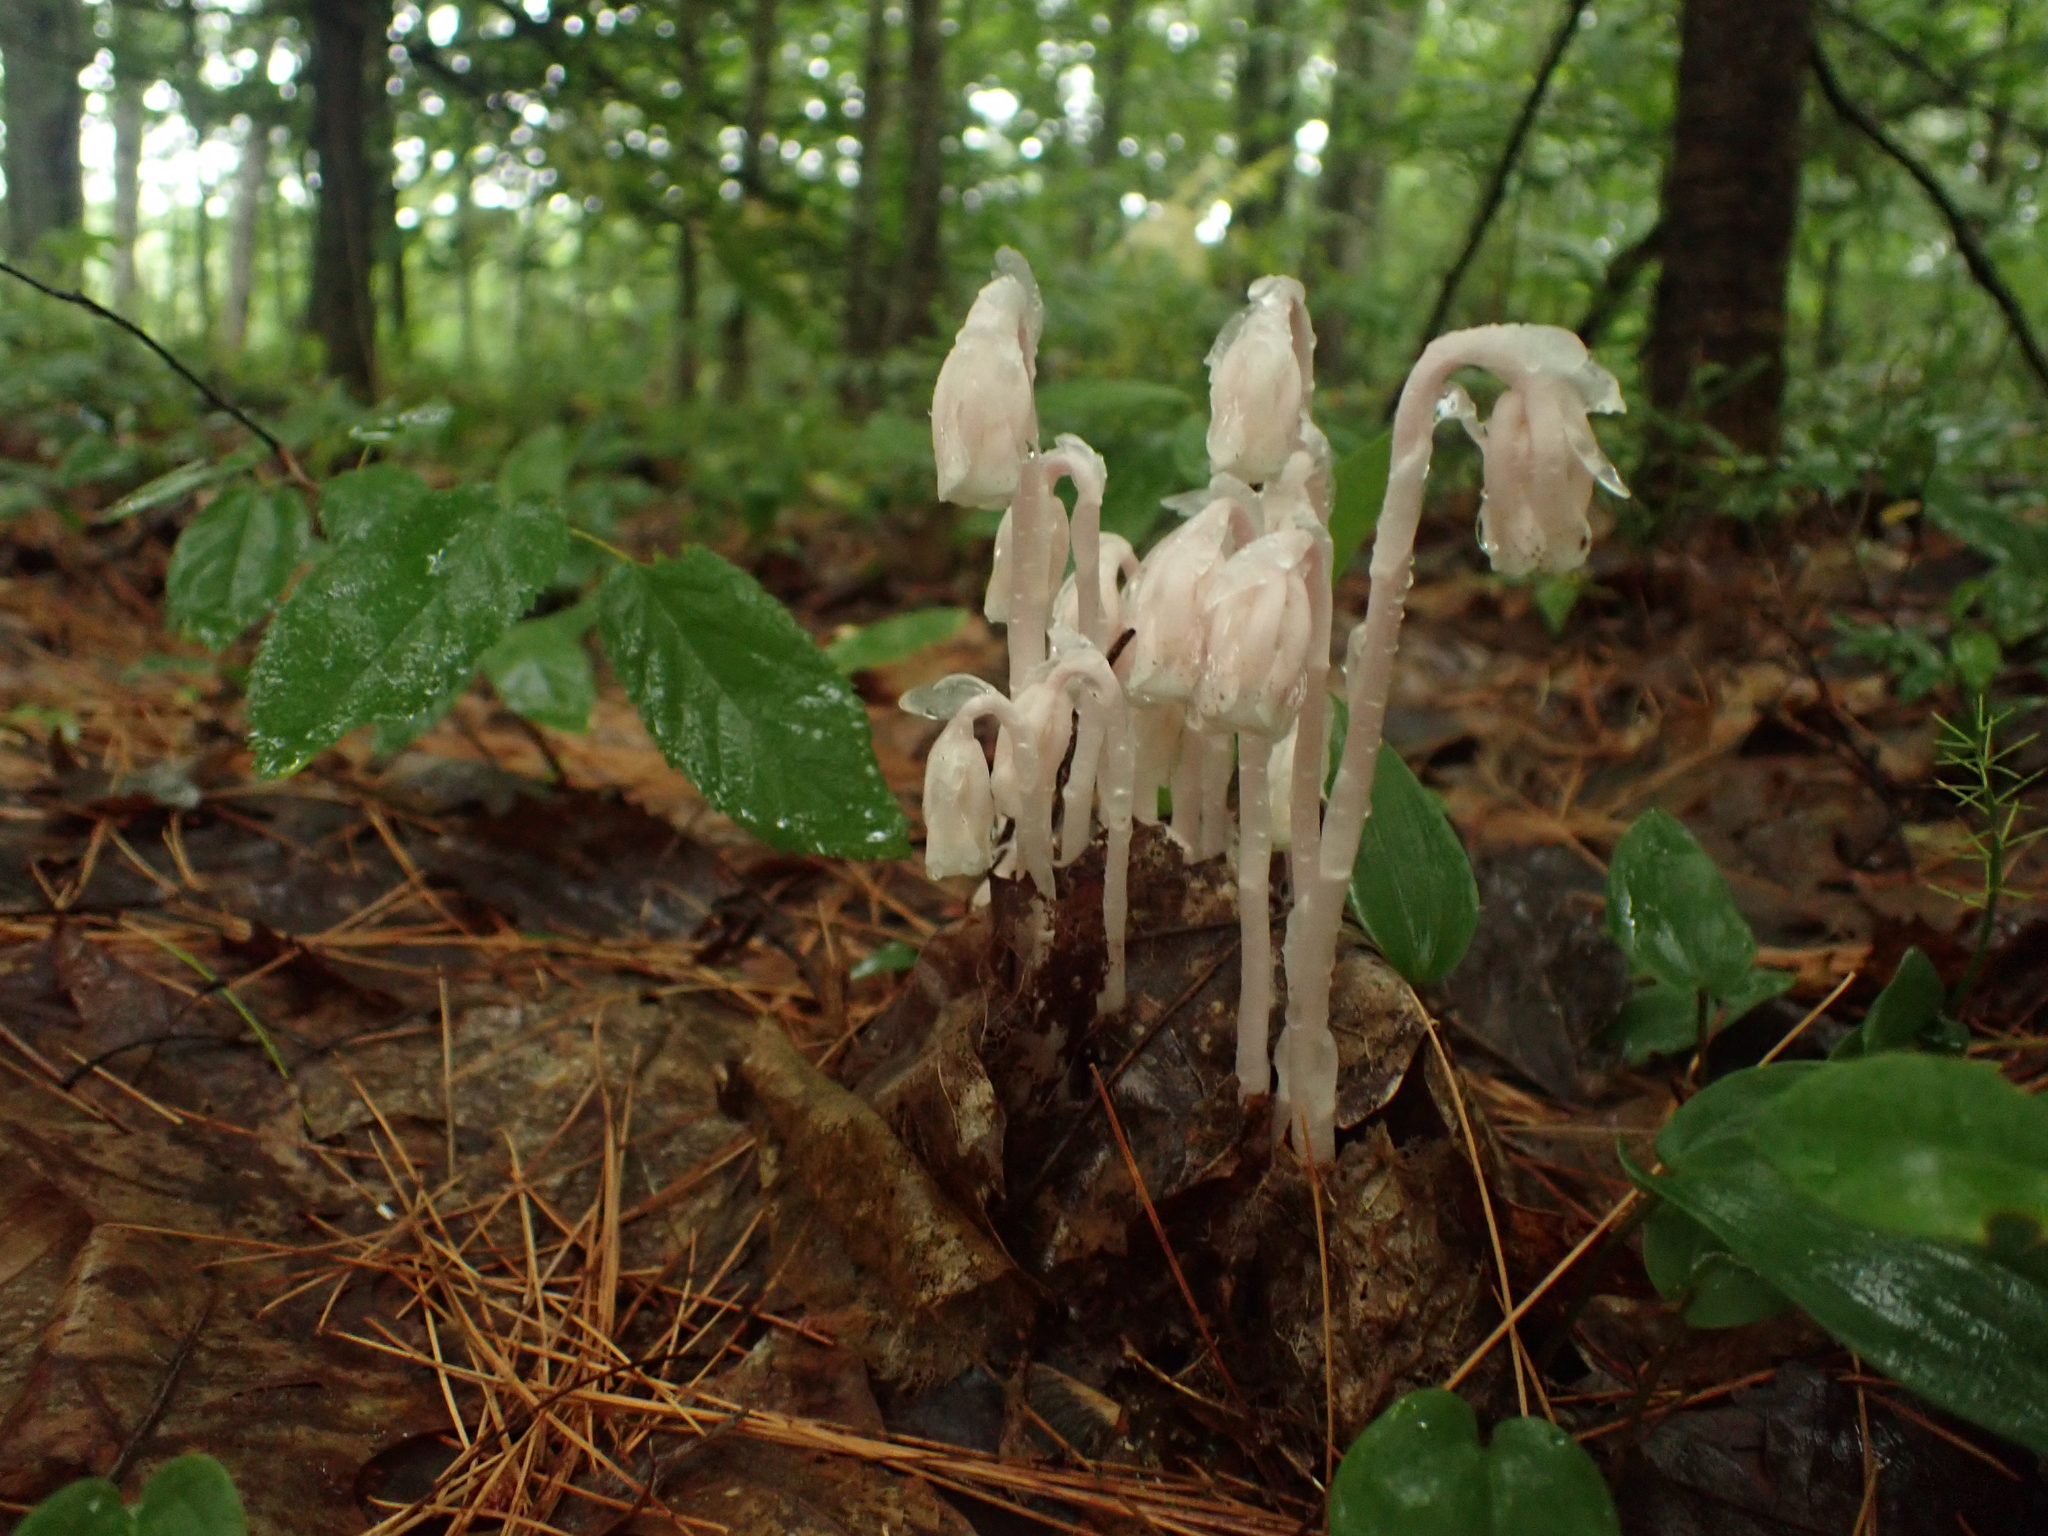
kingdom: Plantae
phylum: Tracheophyta
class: Magnoliopsida
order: Ericales
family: Ericaceae
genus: Monotropa
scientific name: Monotropa uniflora
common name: Convulsion root
